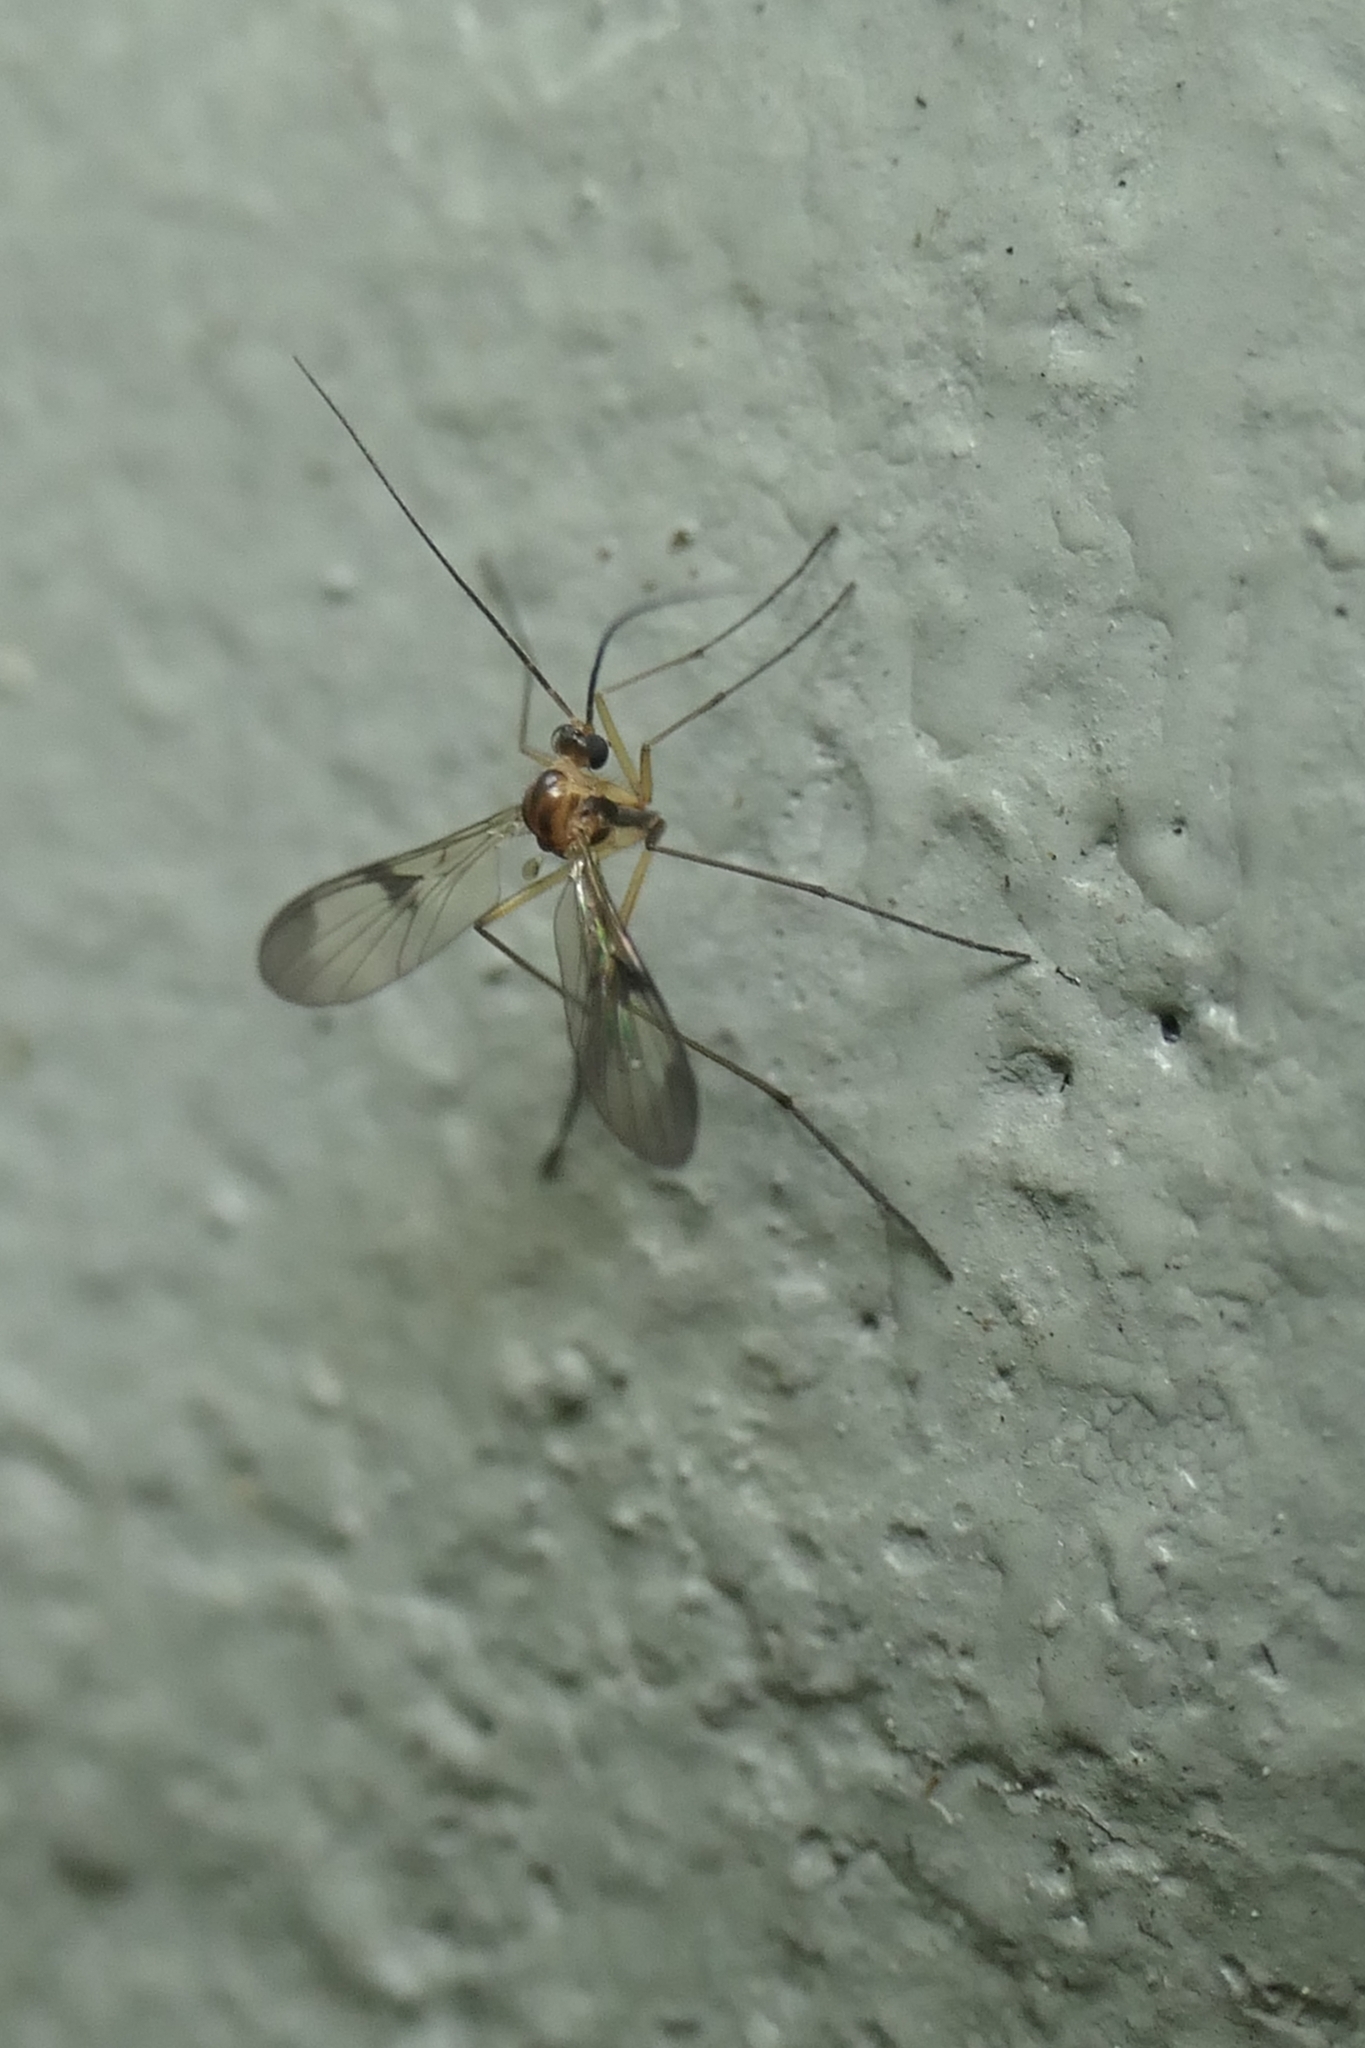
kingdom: Animalia
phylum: Arthropoda
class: Insecta
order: Diptera
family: Keroplatidae
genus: Macrocera
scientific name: Macrocera scoparia
